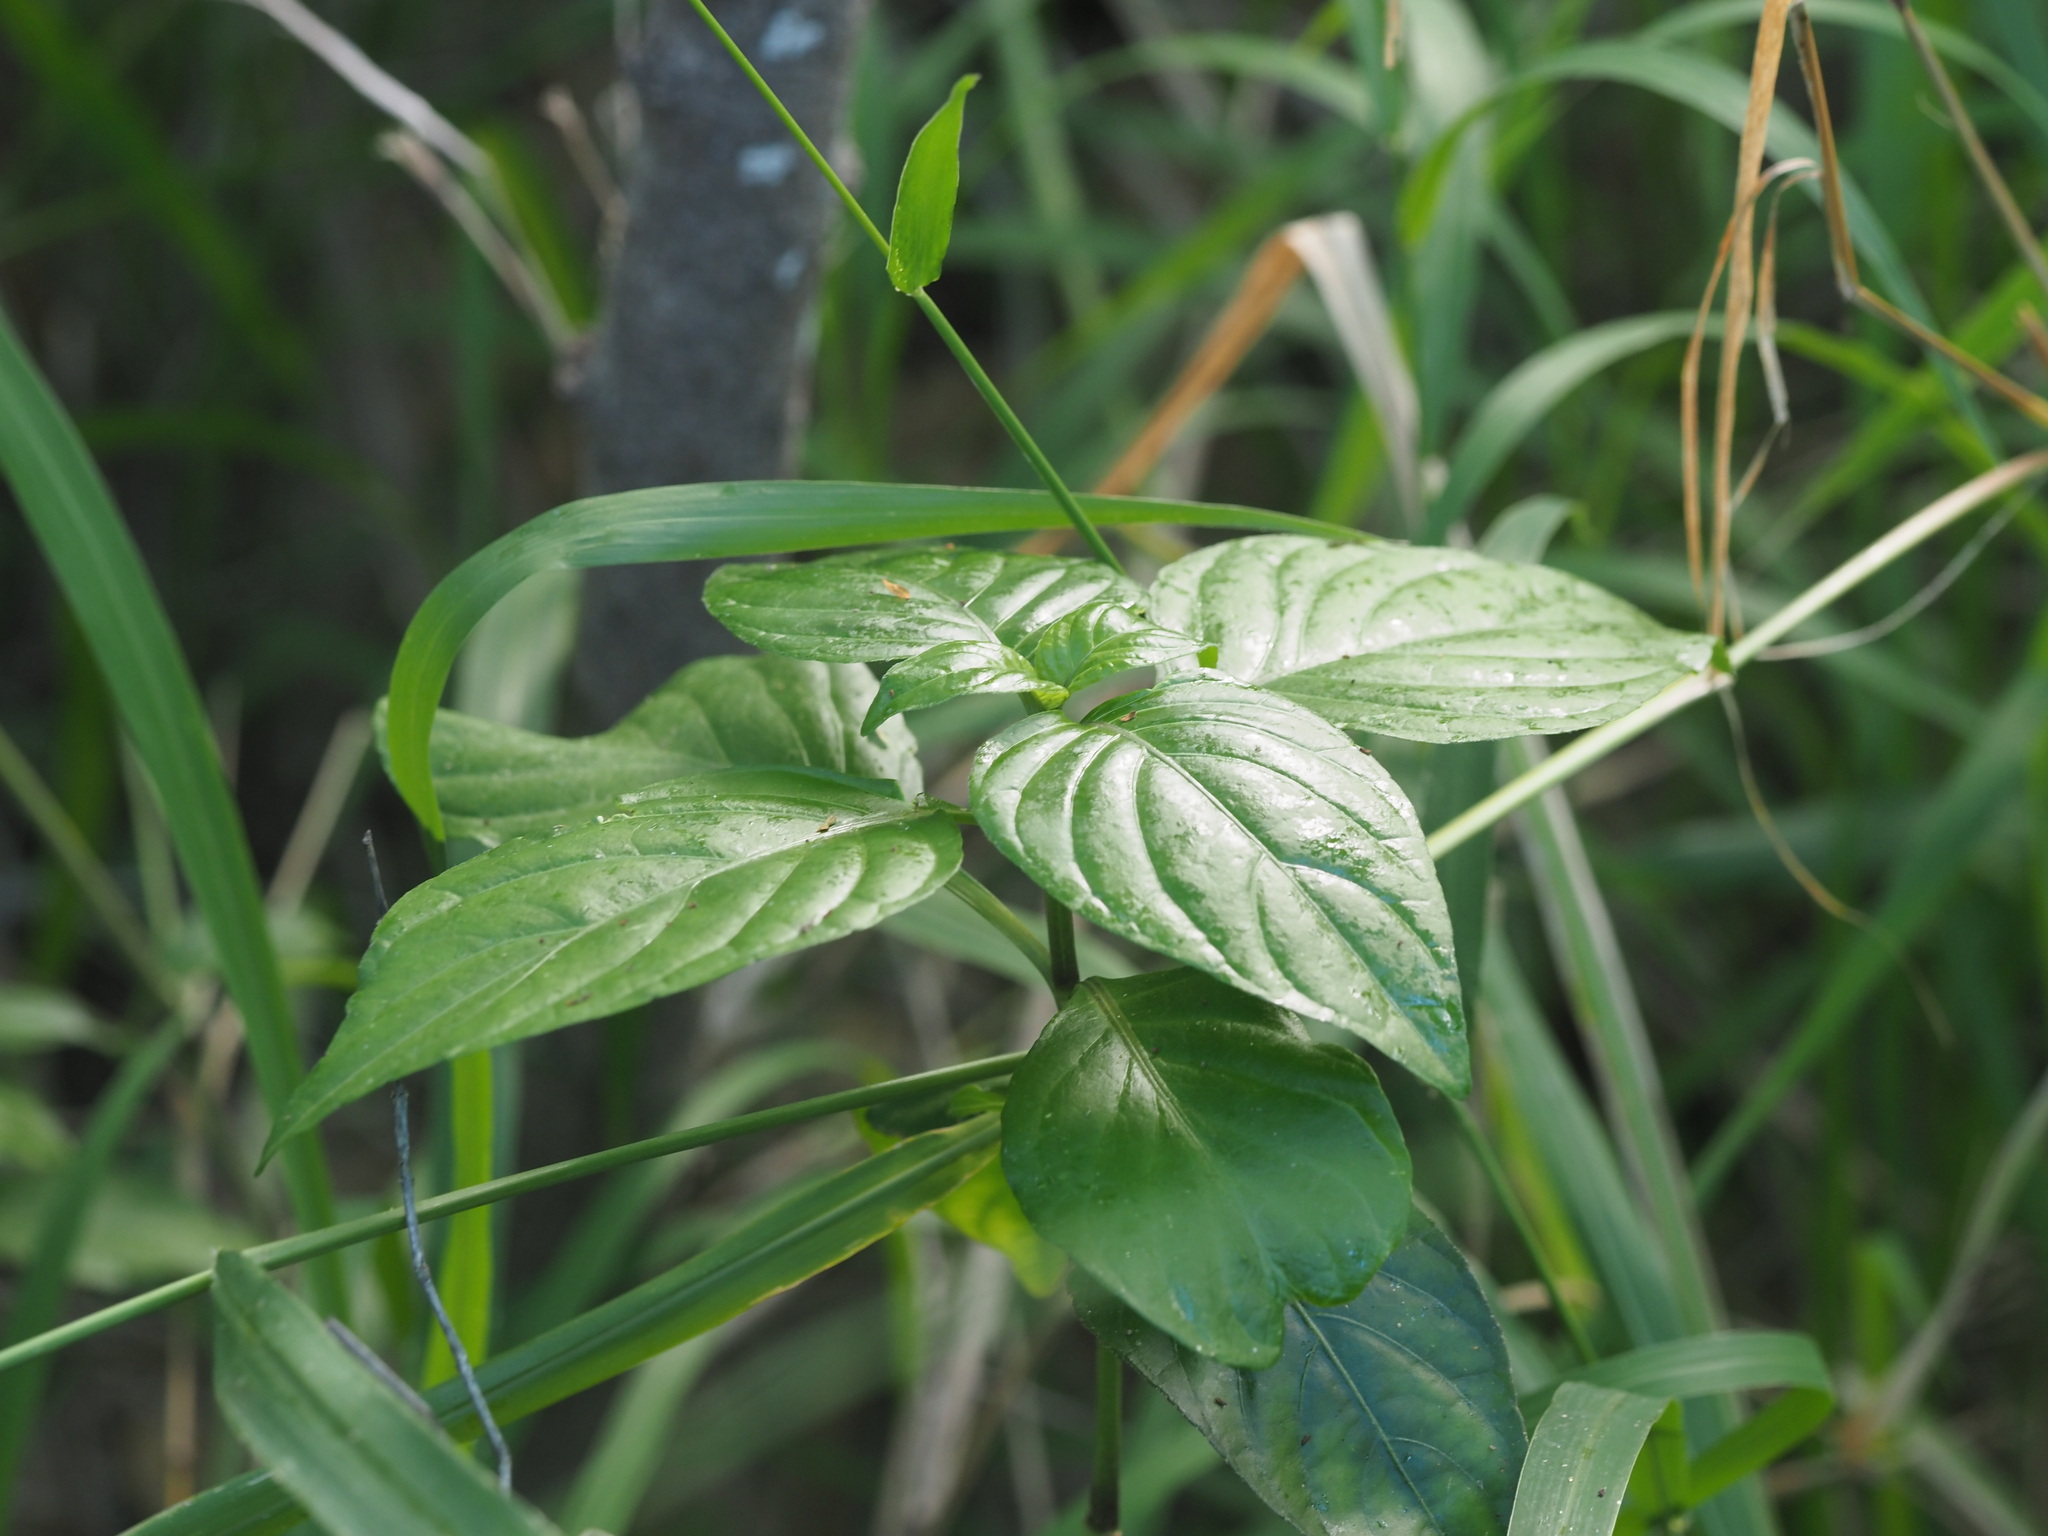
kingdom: Plantae
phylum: Tracheophyta
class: Magnoliopsida
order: Lamiales
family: Acanthaceae
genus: Justicia
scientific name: Justicia betonica
